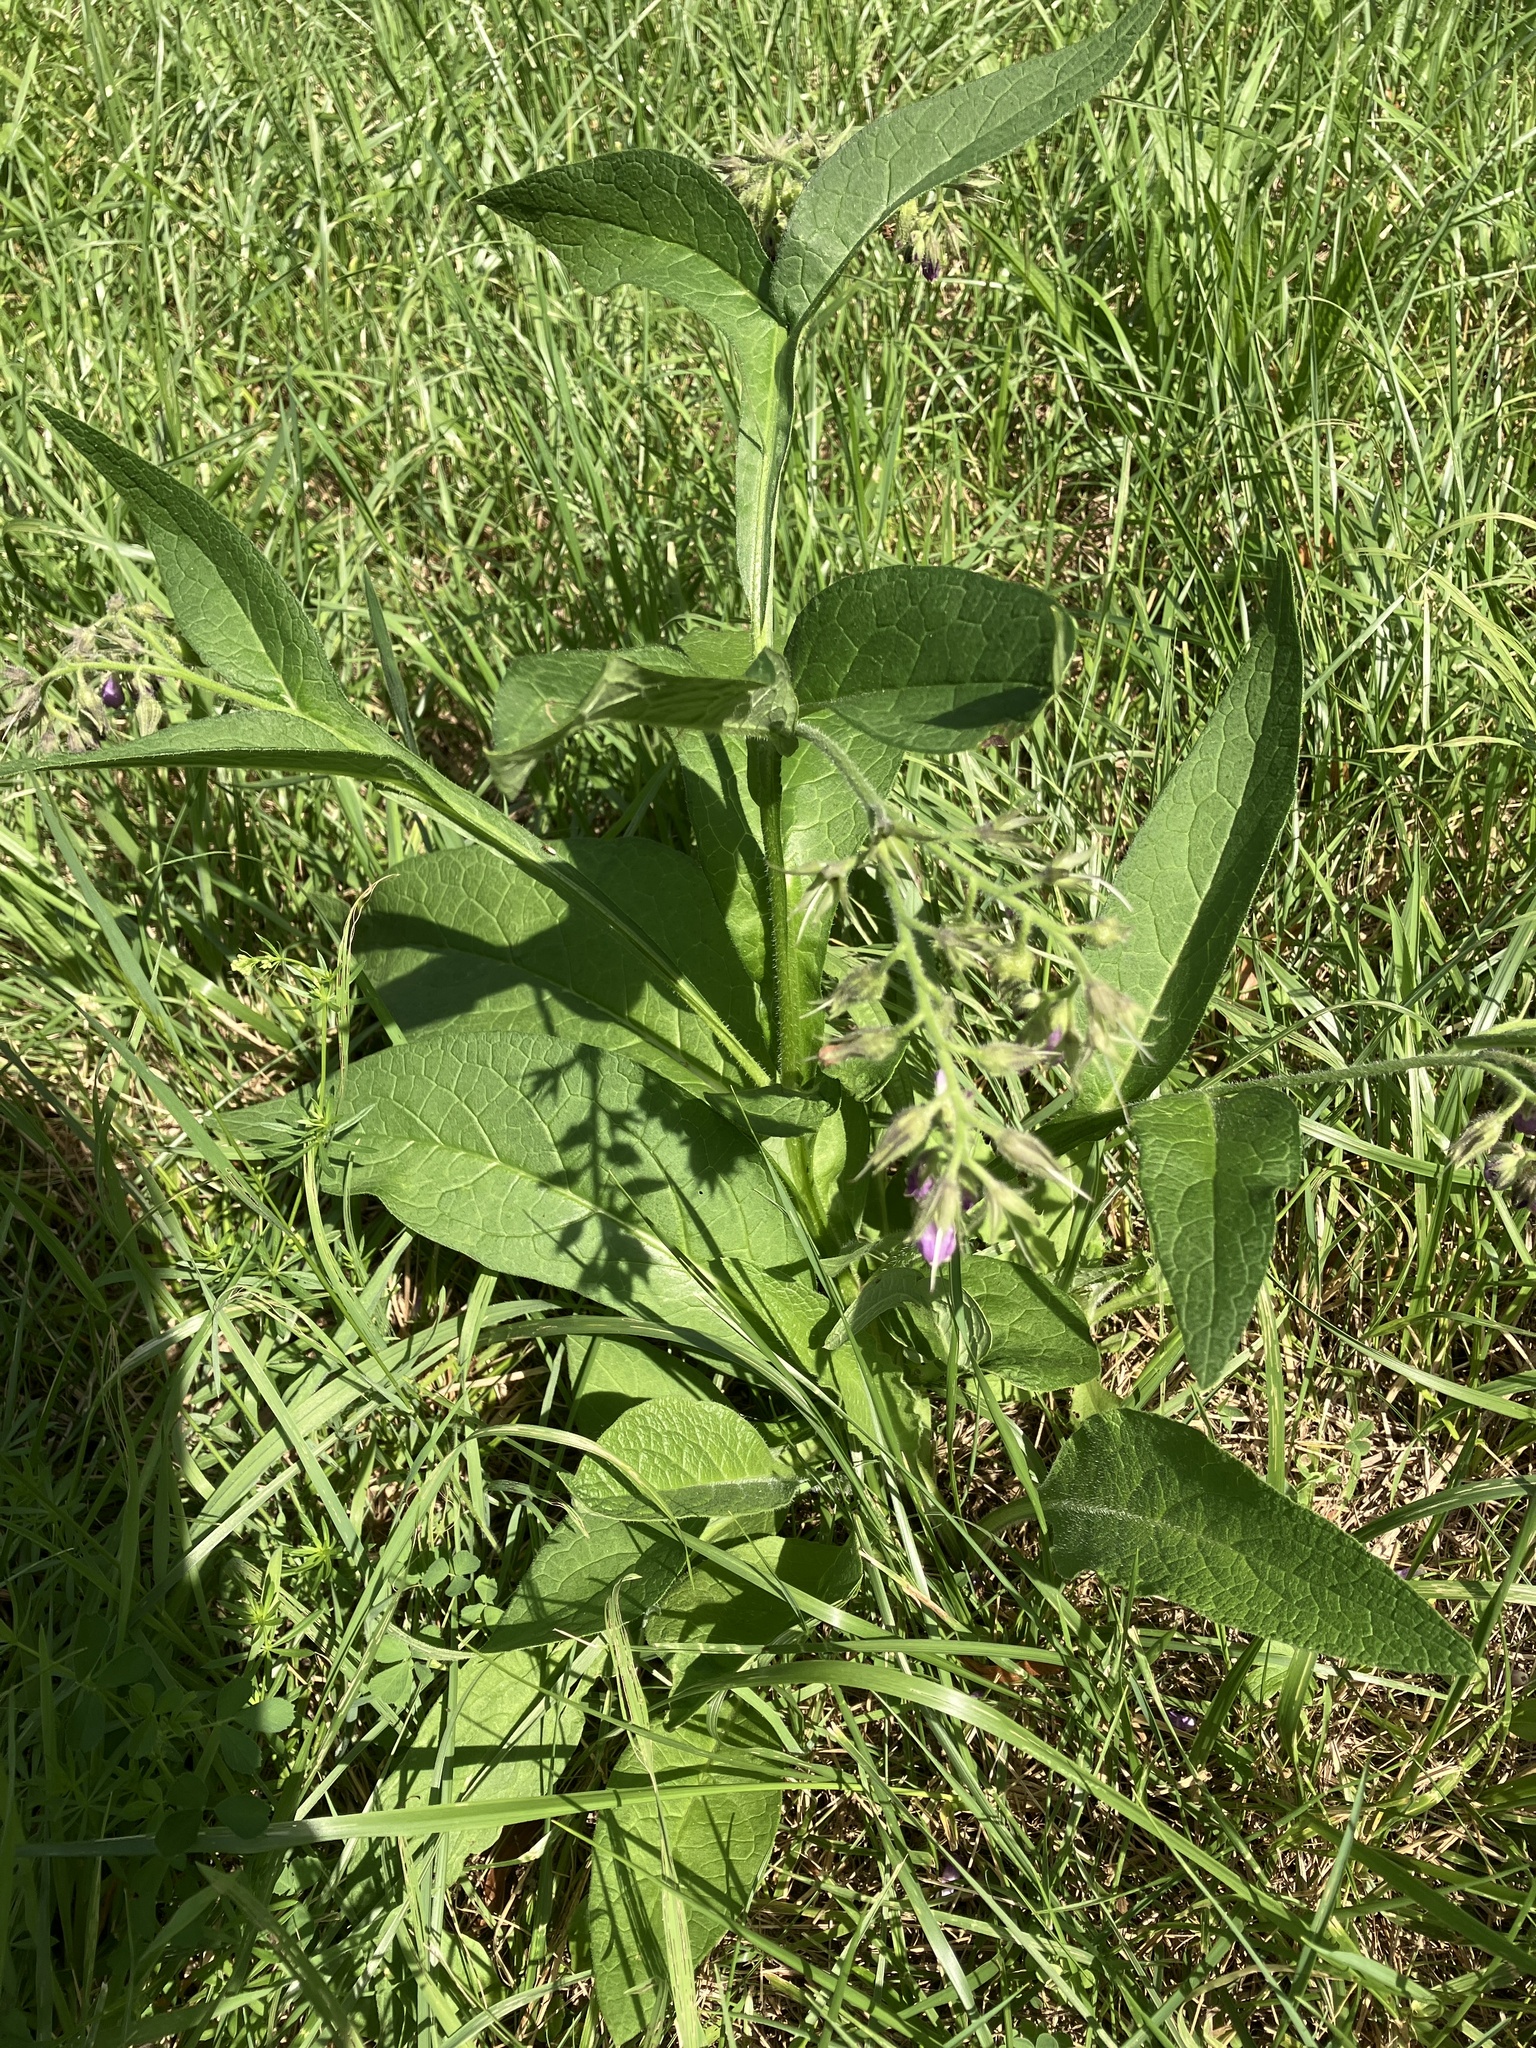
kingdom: Plantae
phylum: Tracheophyta
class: Magnoliopsida
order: Boraginales
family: Boraginaceae
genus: Symphytum
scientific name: Symphytum officinale
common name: Common comfrey
